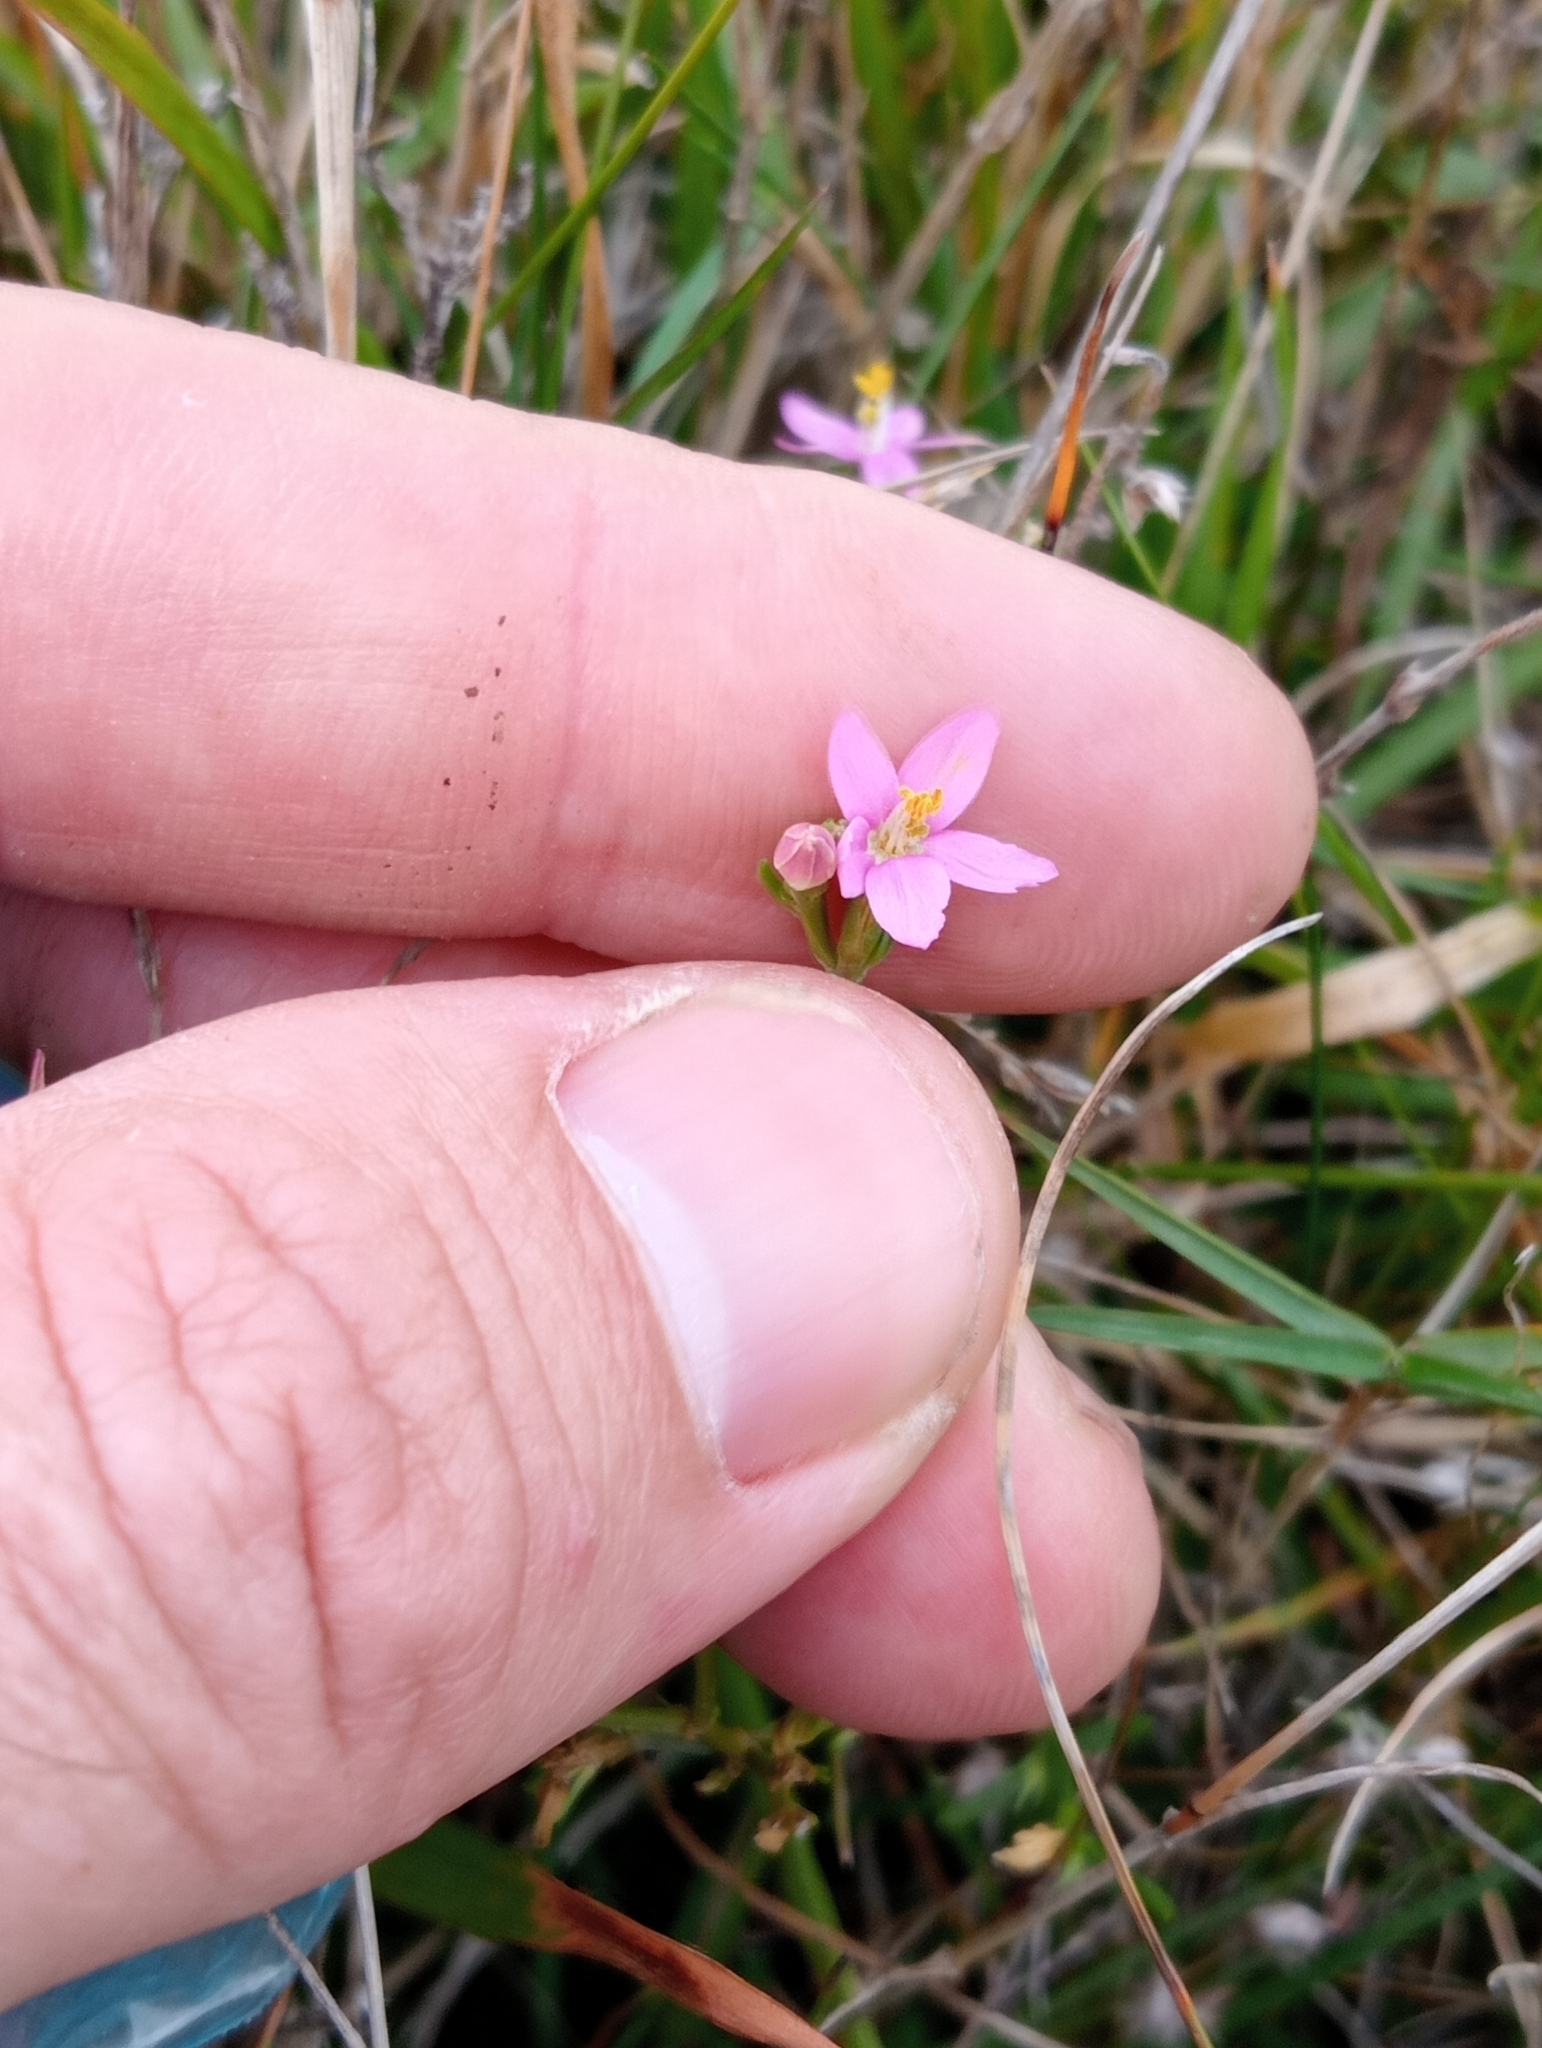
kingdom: Plantae
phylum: Tracheophyta
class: Magnoliopsida
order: Gentianales
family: Gentianaceae
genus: Centaurium
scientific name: Centaurium erythraea
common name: Common centaury
